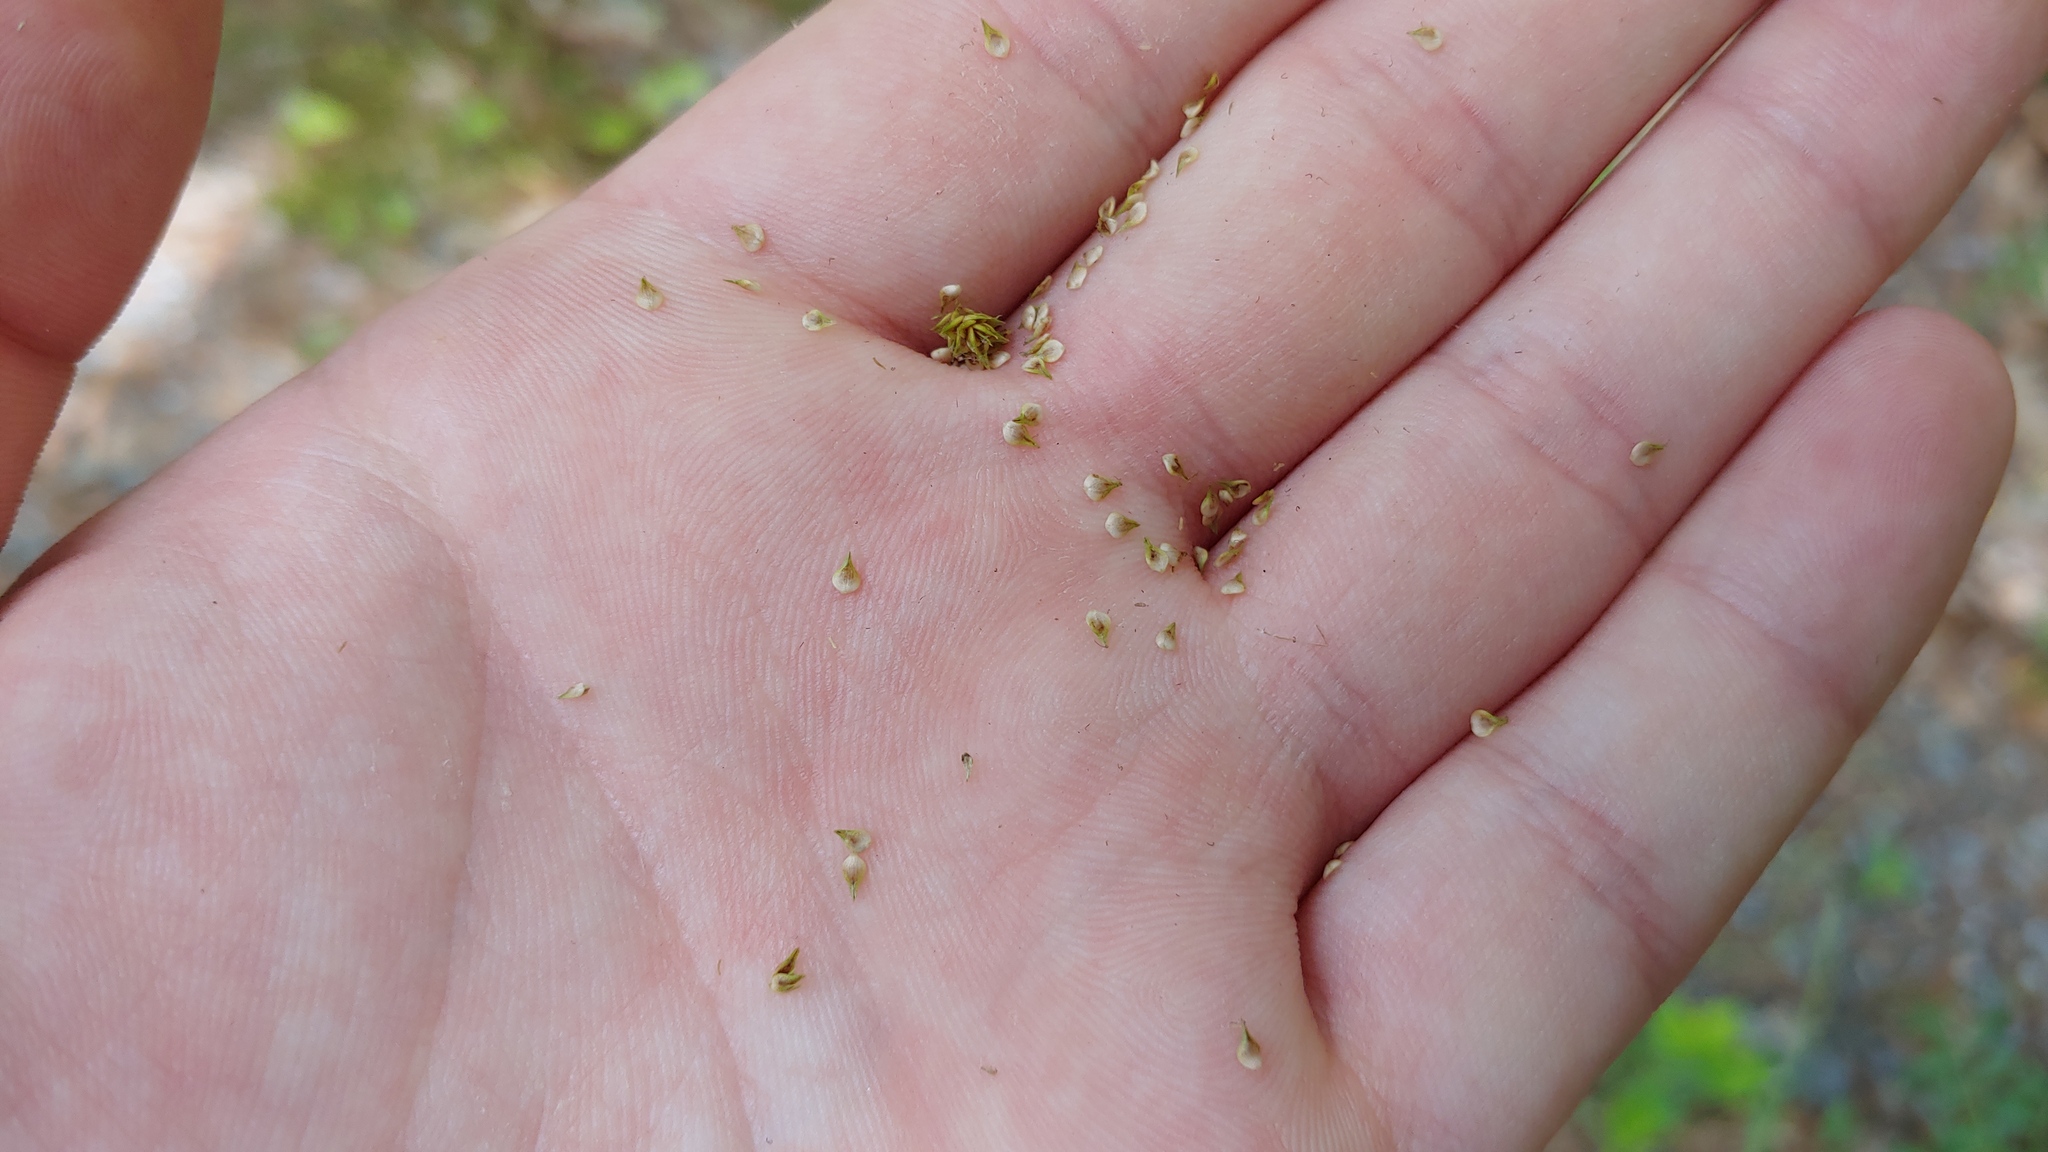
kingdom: Plantae
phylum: Tracheophyta
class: Liliopsida
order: Poales
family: Cyperaceae
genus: Carex
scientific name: Carex vulpinoidea
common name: American fox-sedge
